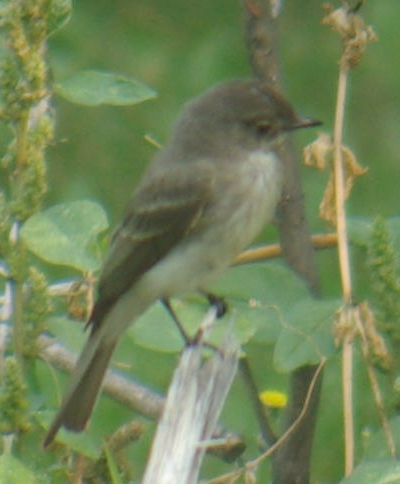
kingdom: Animalia
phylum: Chordata
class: Aves
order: Passeriformes
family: Tyrannidae
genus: Sayornis
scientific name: Sayornis phoebe
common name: Eastern phoebe
